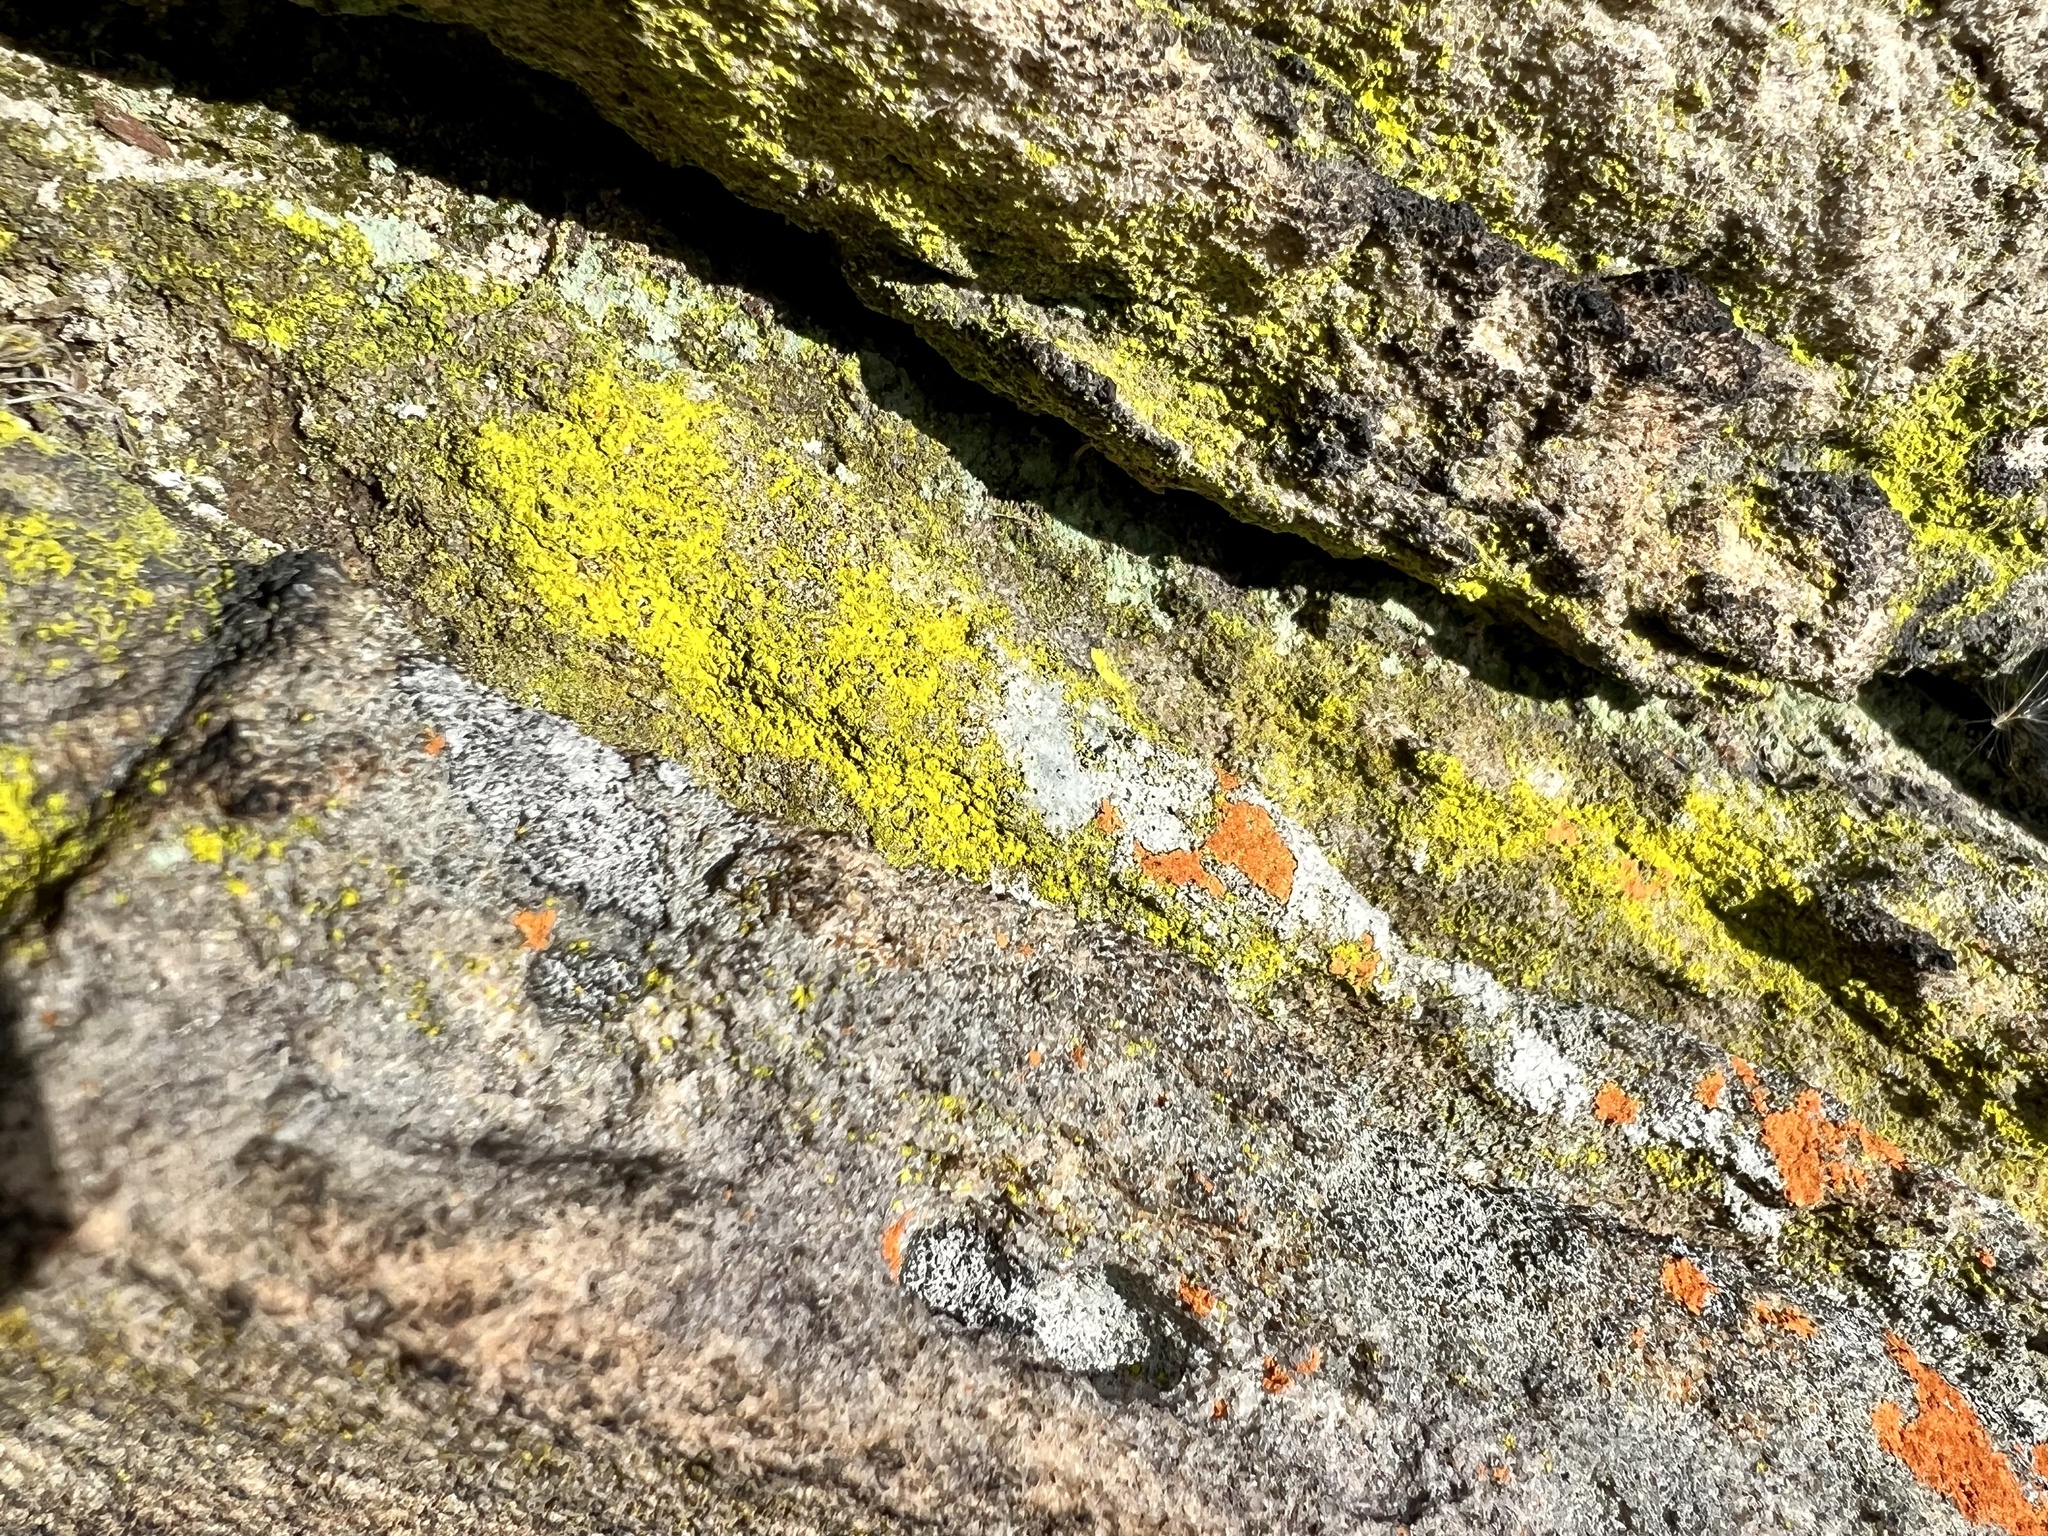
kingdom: Fungi
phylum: Ascomycota
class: Arthoniomycetes
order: Arthoniales
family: Chrysotrichaceae
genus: Chrysothrix
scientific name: Chrysothrix xanthina
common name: Common gold-dust
